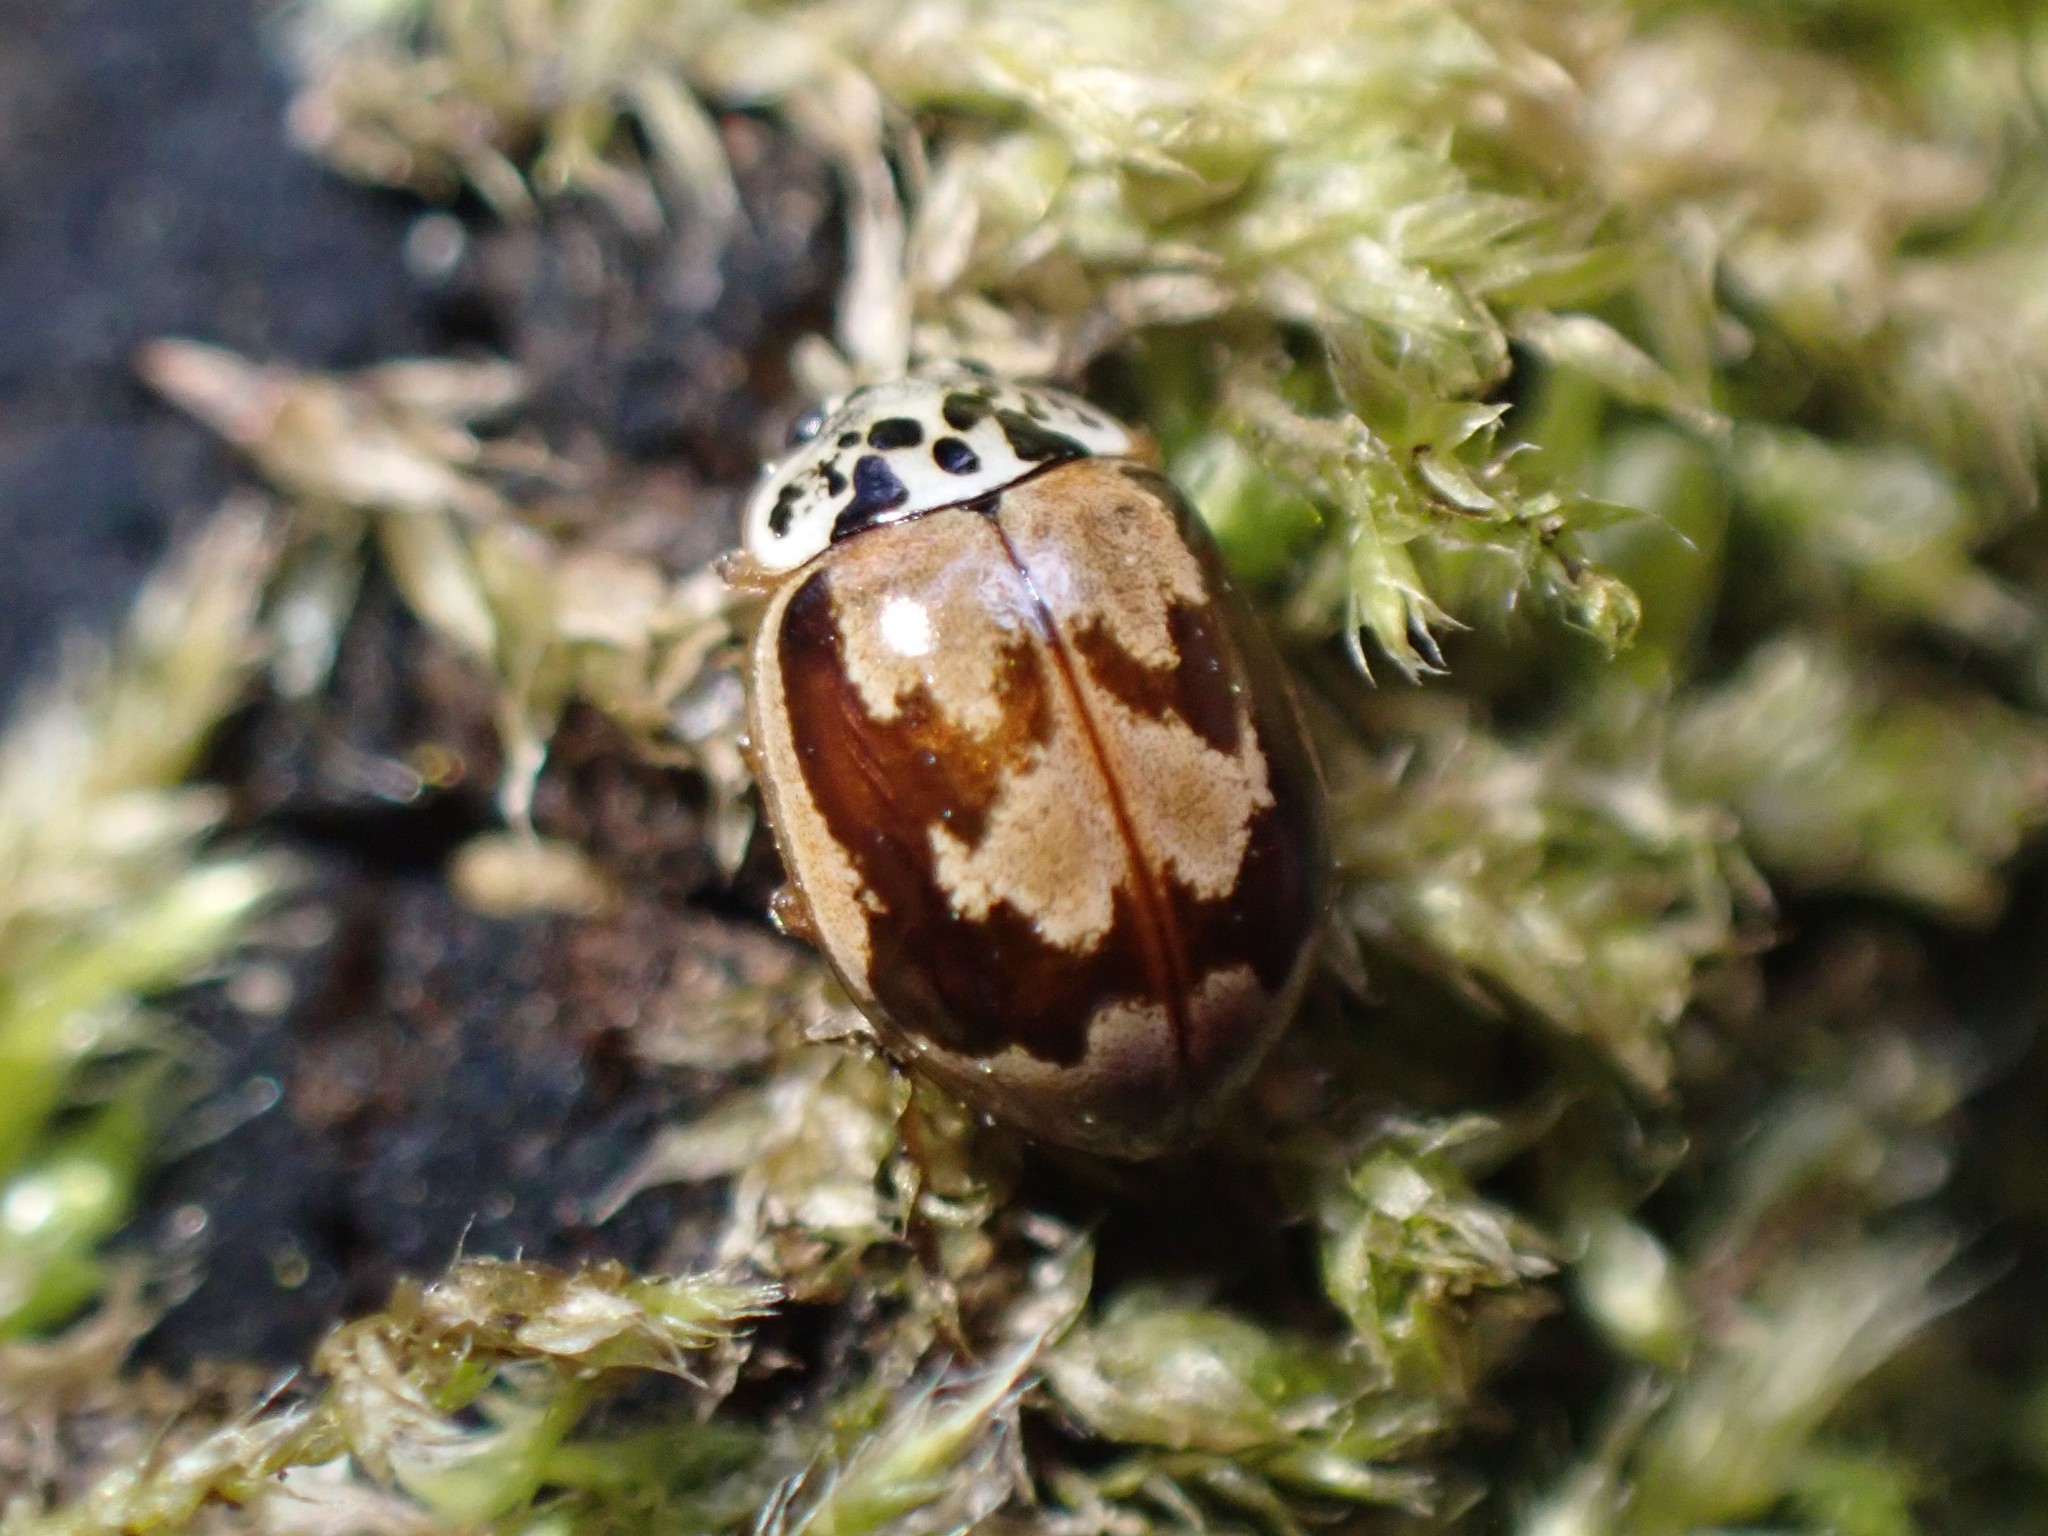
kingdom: Animalia
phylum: Arthropoda
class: Insecta
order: Coleoptera
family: Coccinellidae
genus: Mulsantina
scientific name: Mulsantina picta
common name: Painted ladybird
